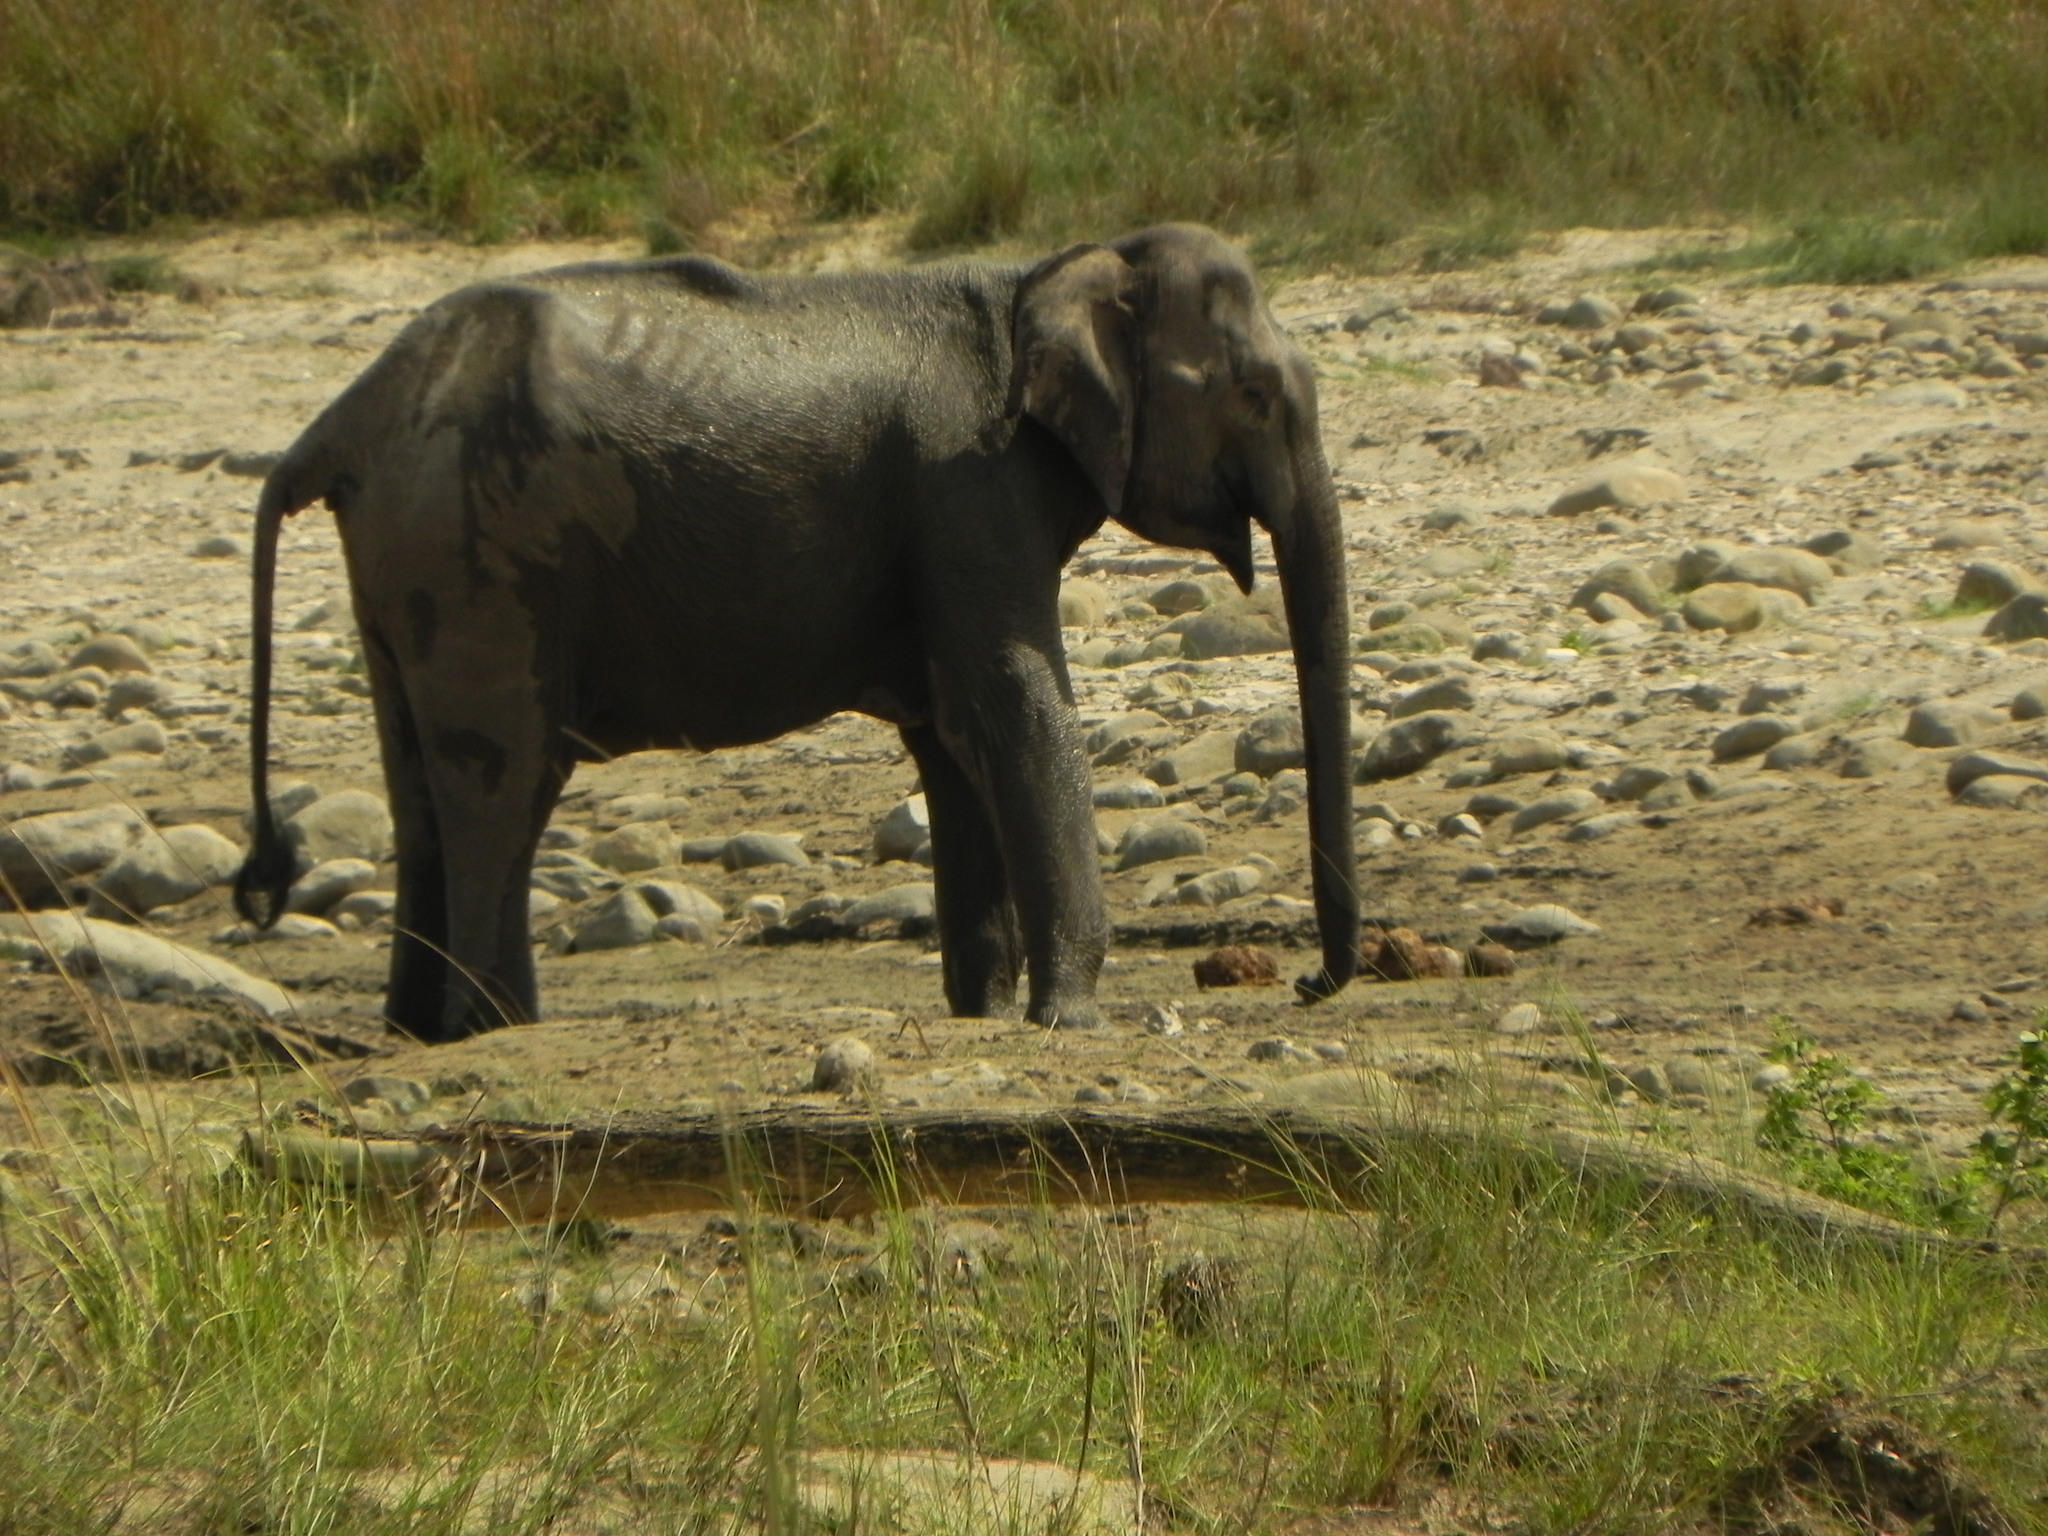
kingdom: Animalia
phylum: Chordata
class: Mammalia
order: Proboscidea
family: Elephantidae
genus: Elephas
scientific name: Elephas maximus
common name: Asian elephant
